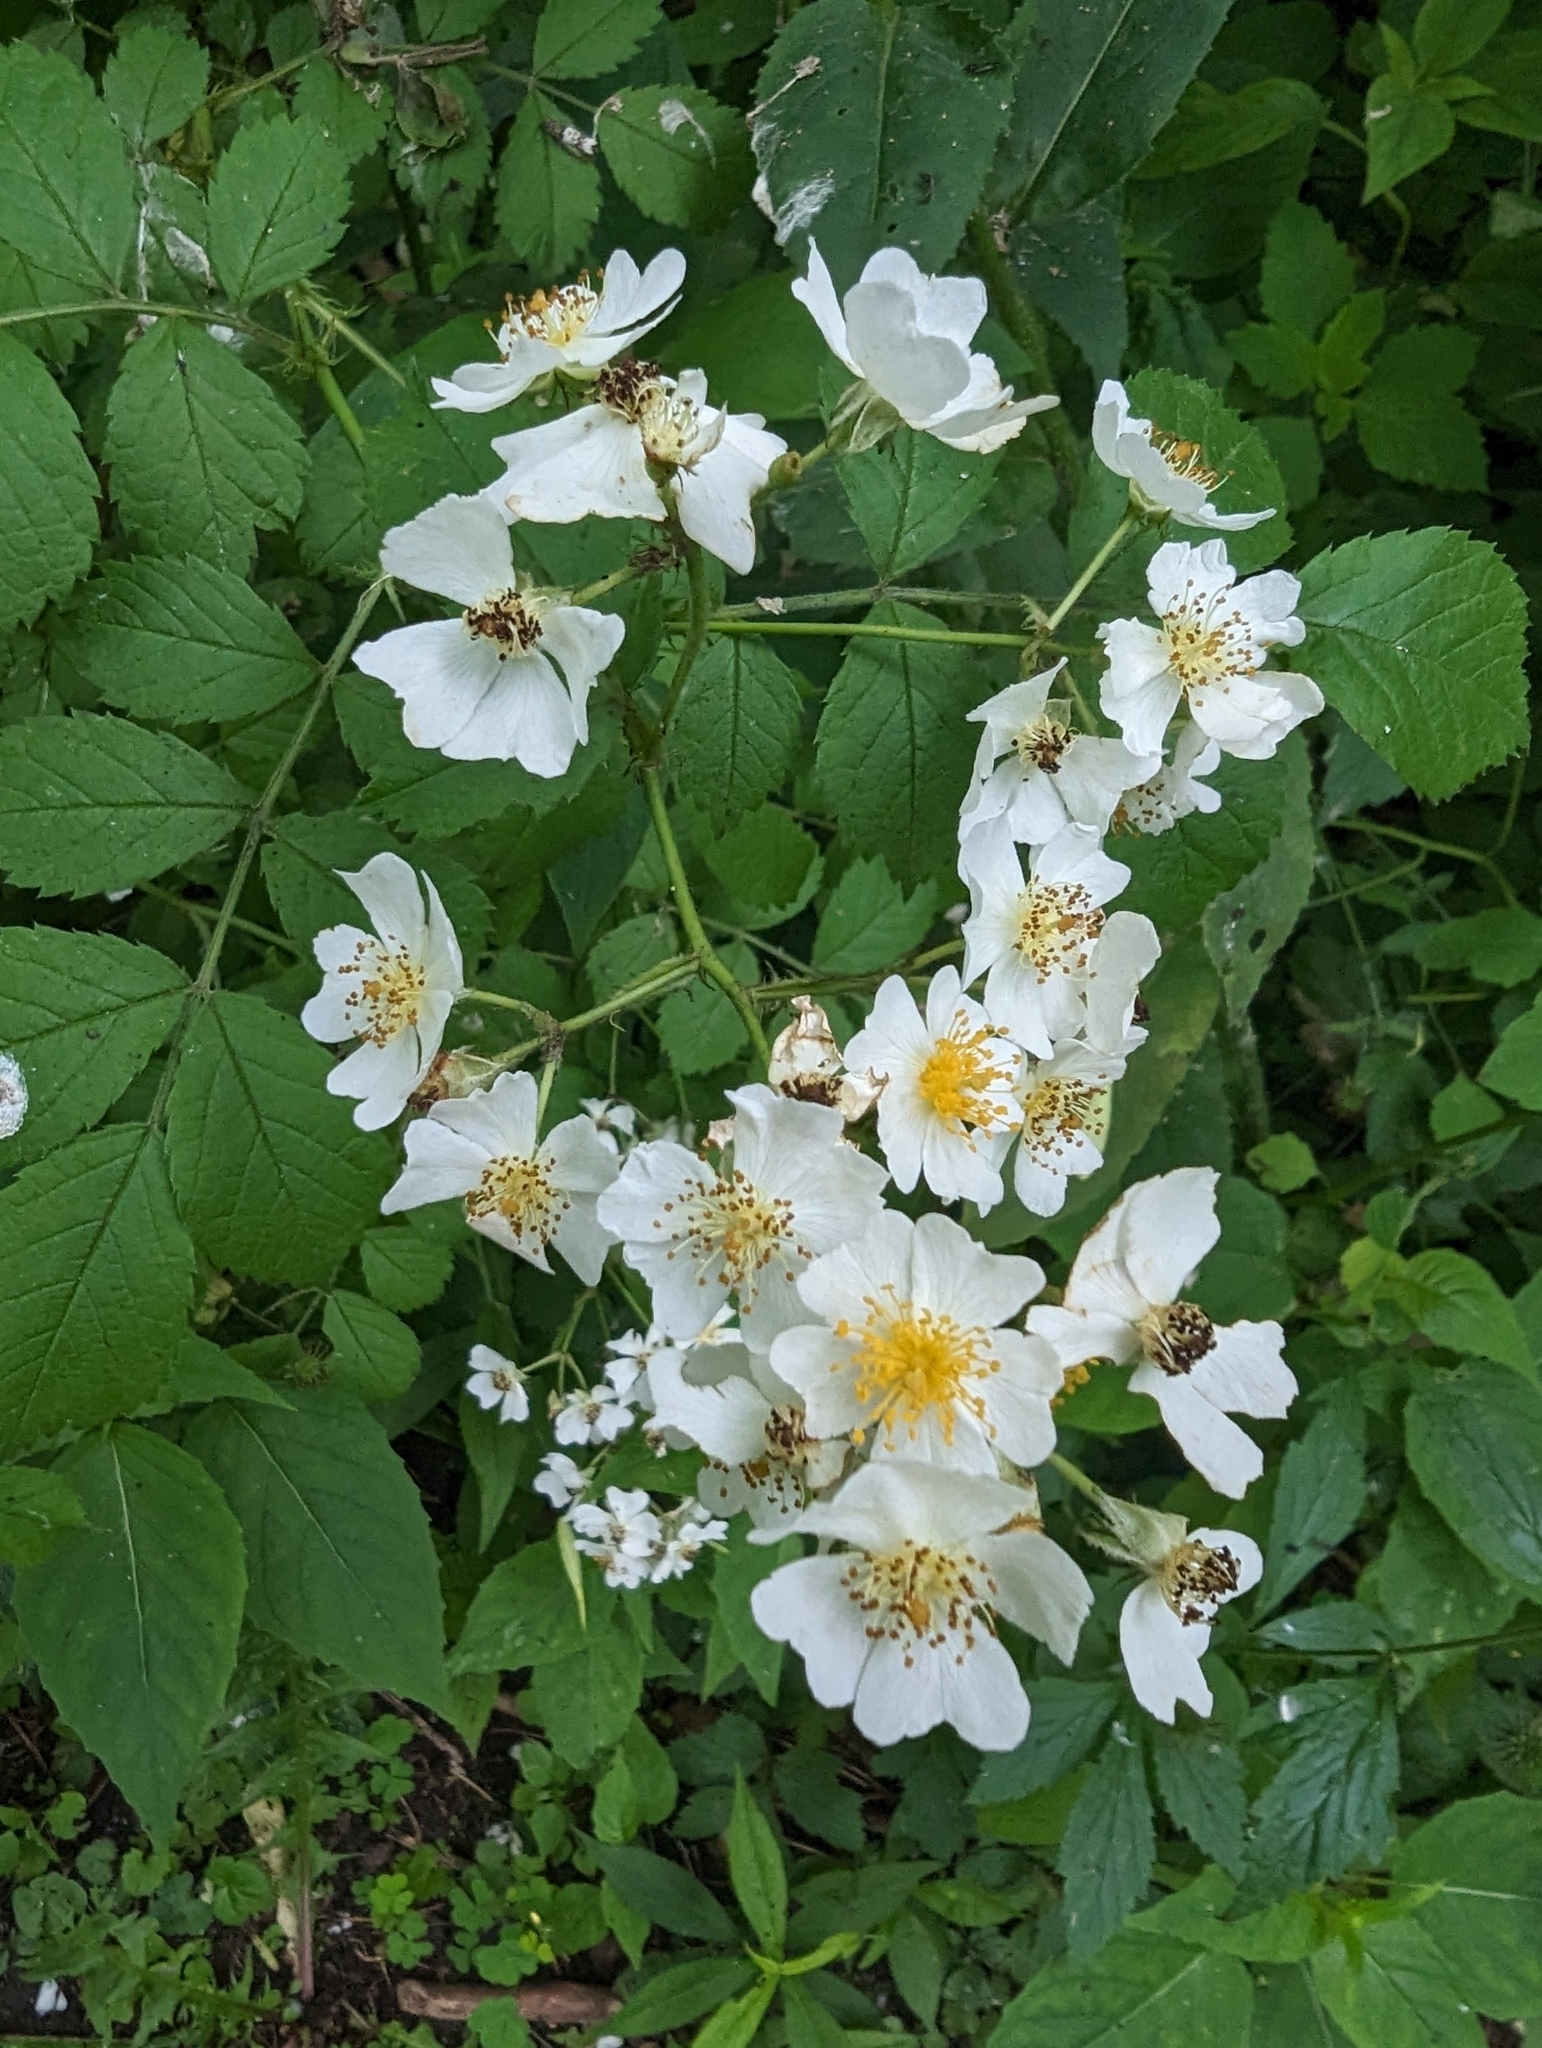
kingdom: Plantae
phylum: Tracheophyta
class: Magnoliopsida
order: Rosales
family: Rosaceae
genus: Rosa
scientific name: Rosa multiflora
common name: Multiflora rose
